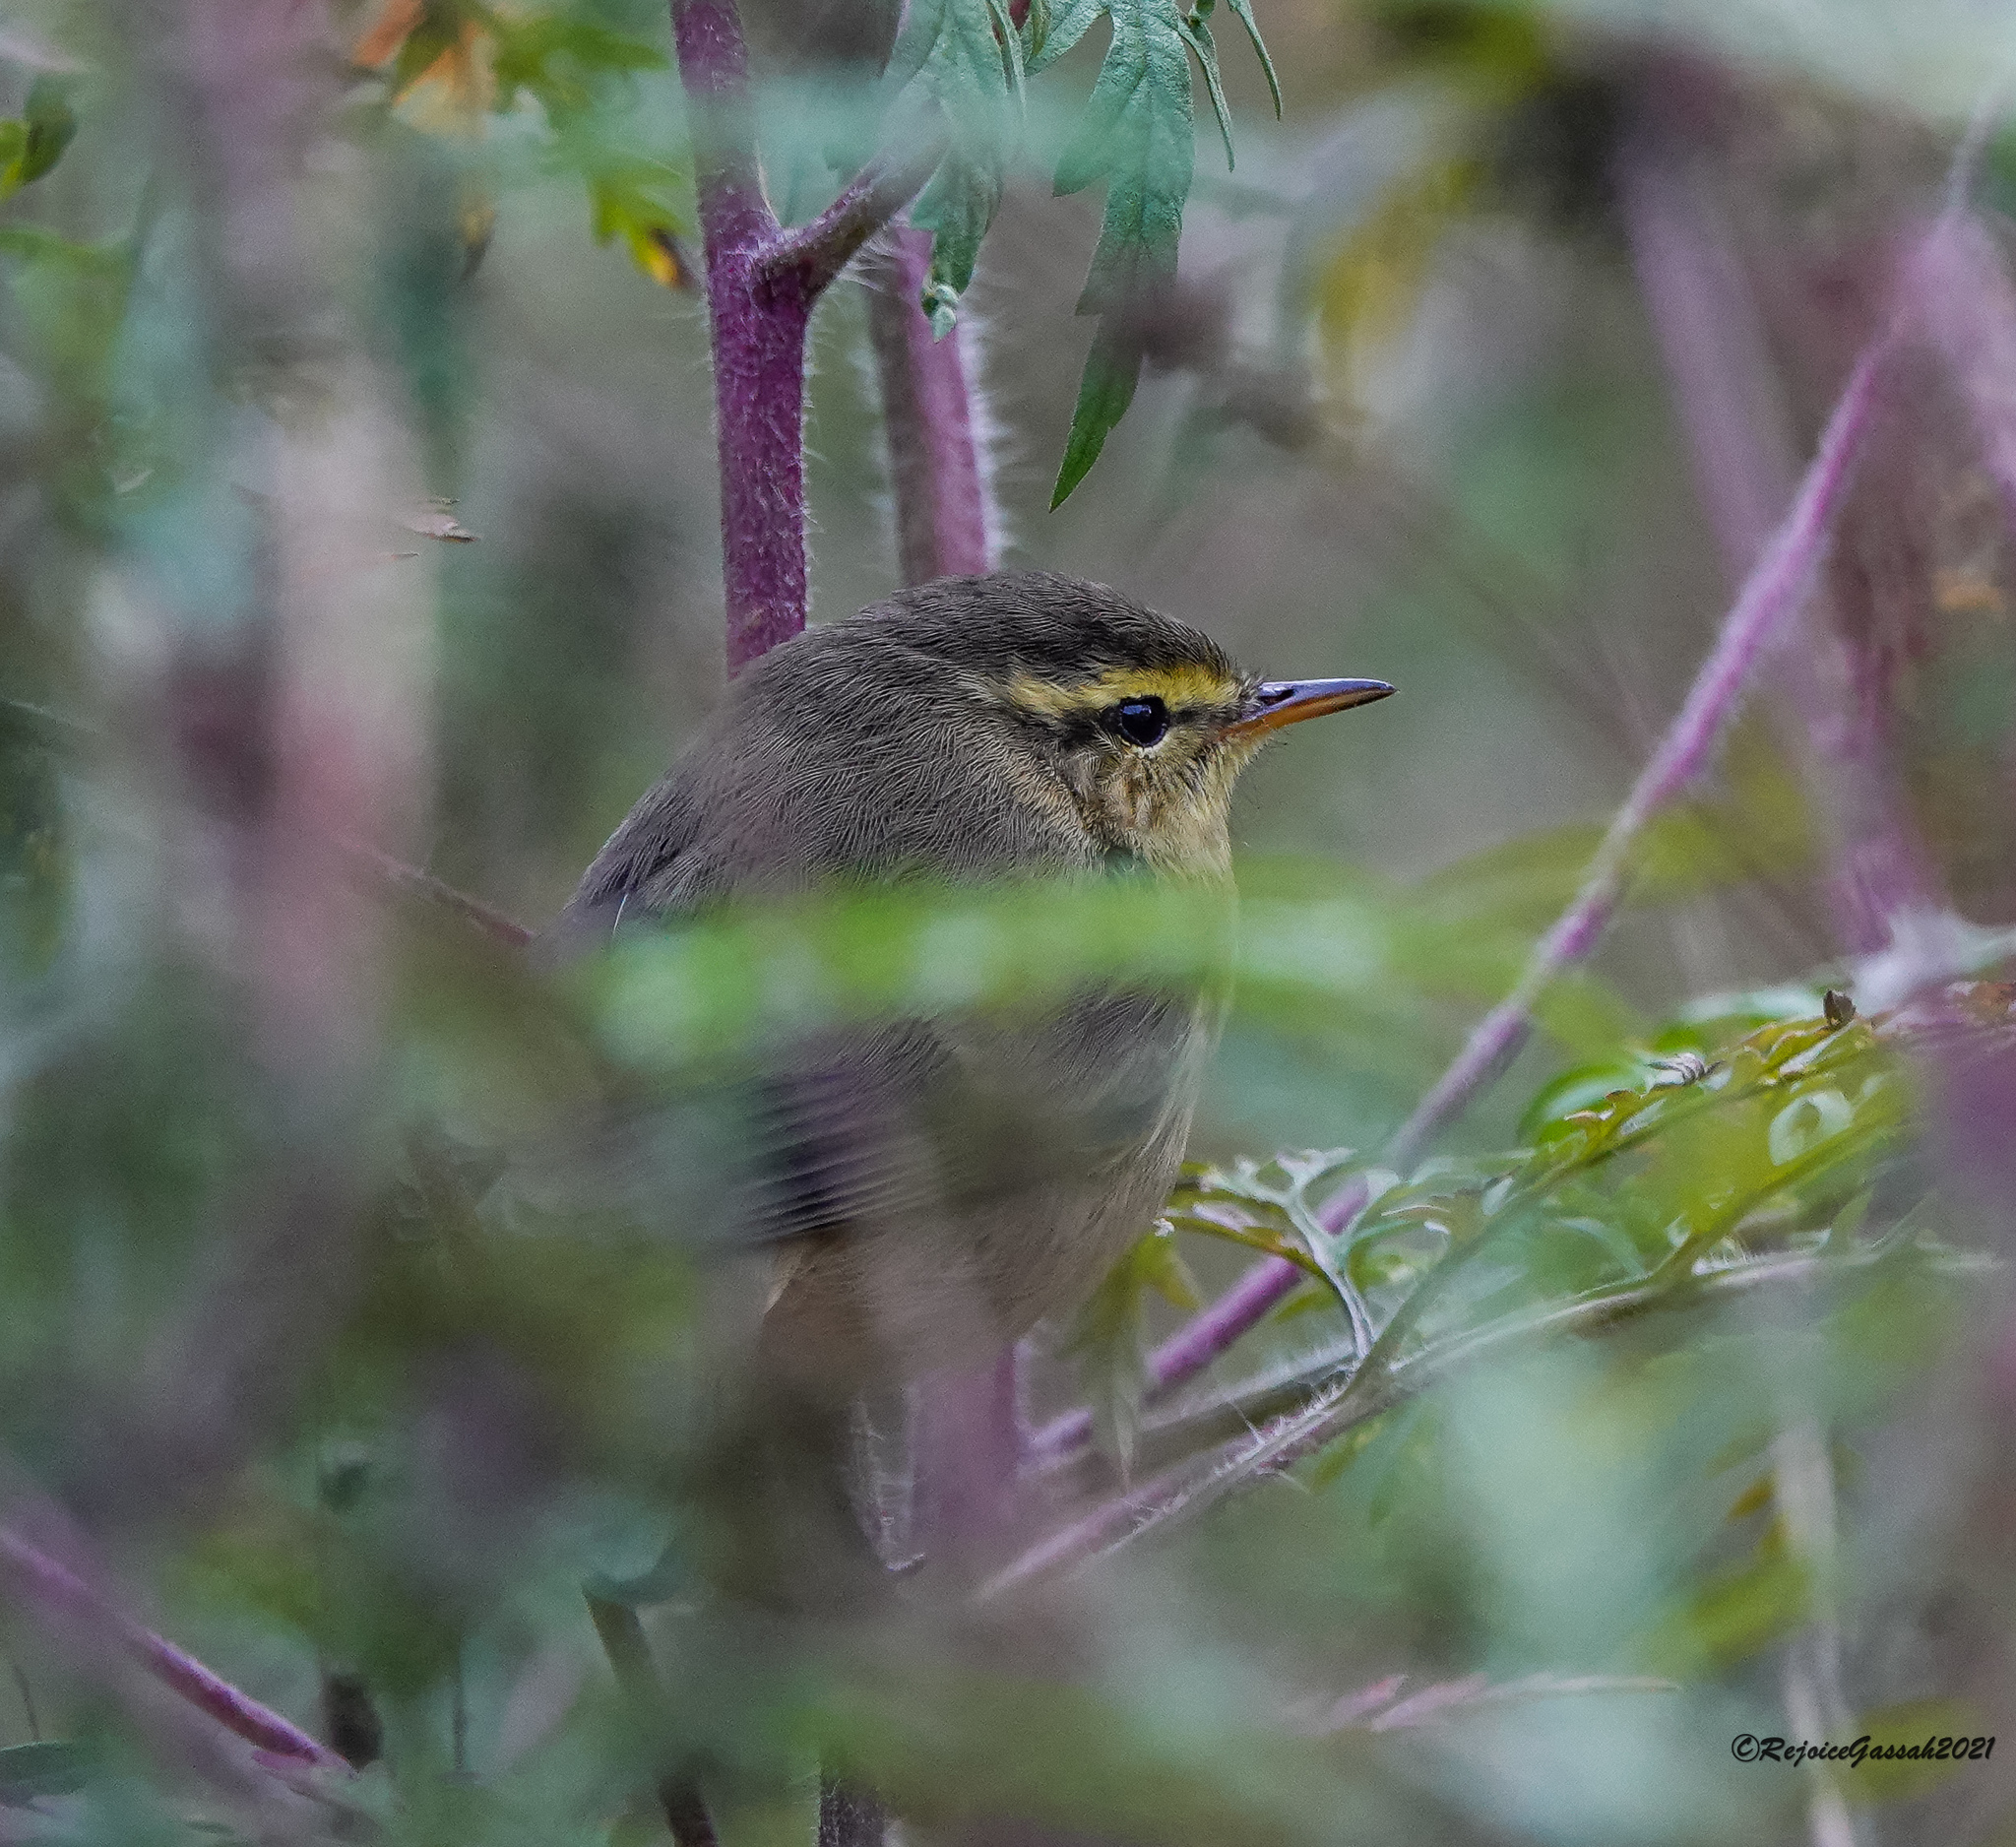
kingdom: Animalia
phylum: Chordata
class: Aves
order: Passeriformes
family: Phylloscopidae
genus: Phylloscopus
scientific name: Phylloscopus affinis
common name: Tickell's leaf warbler
